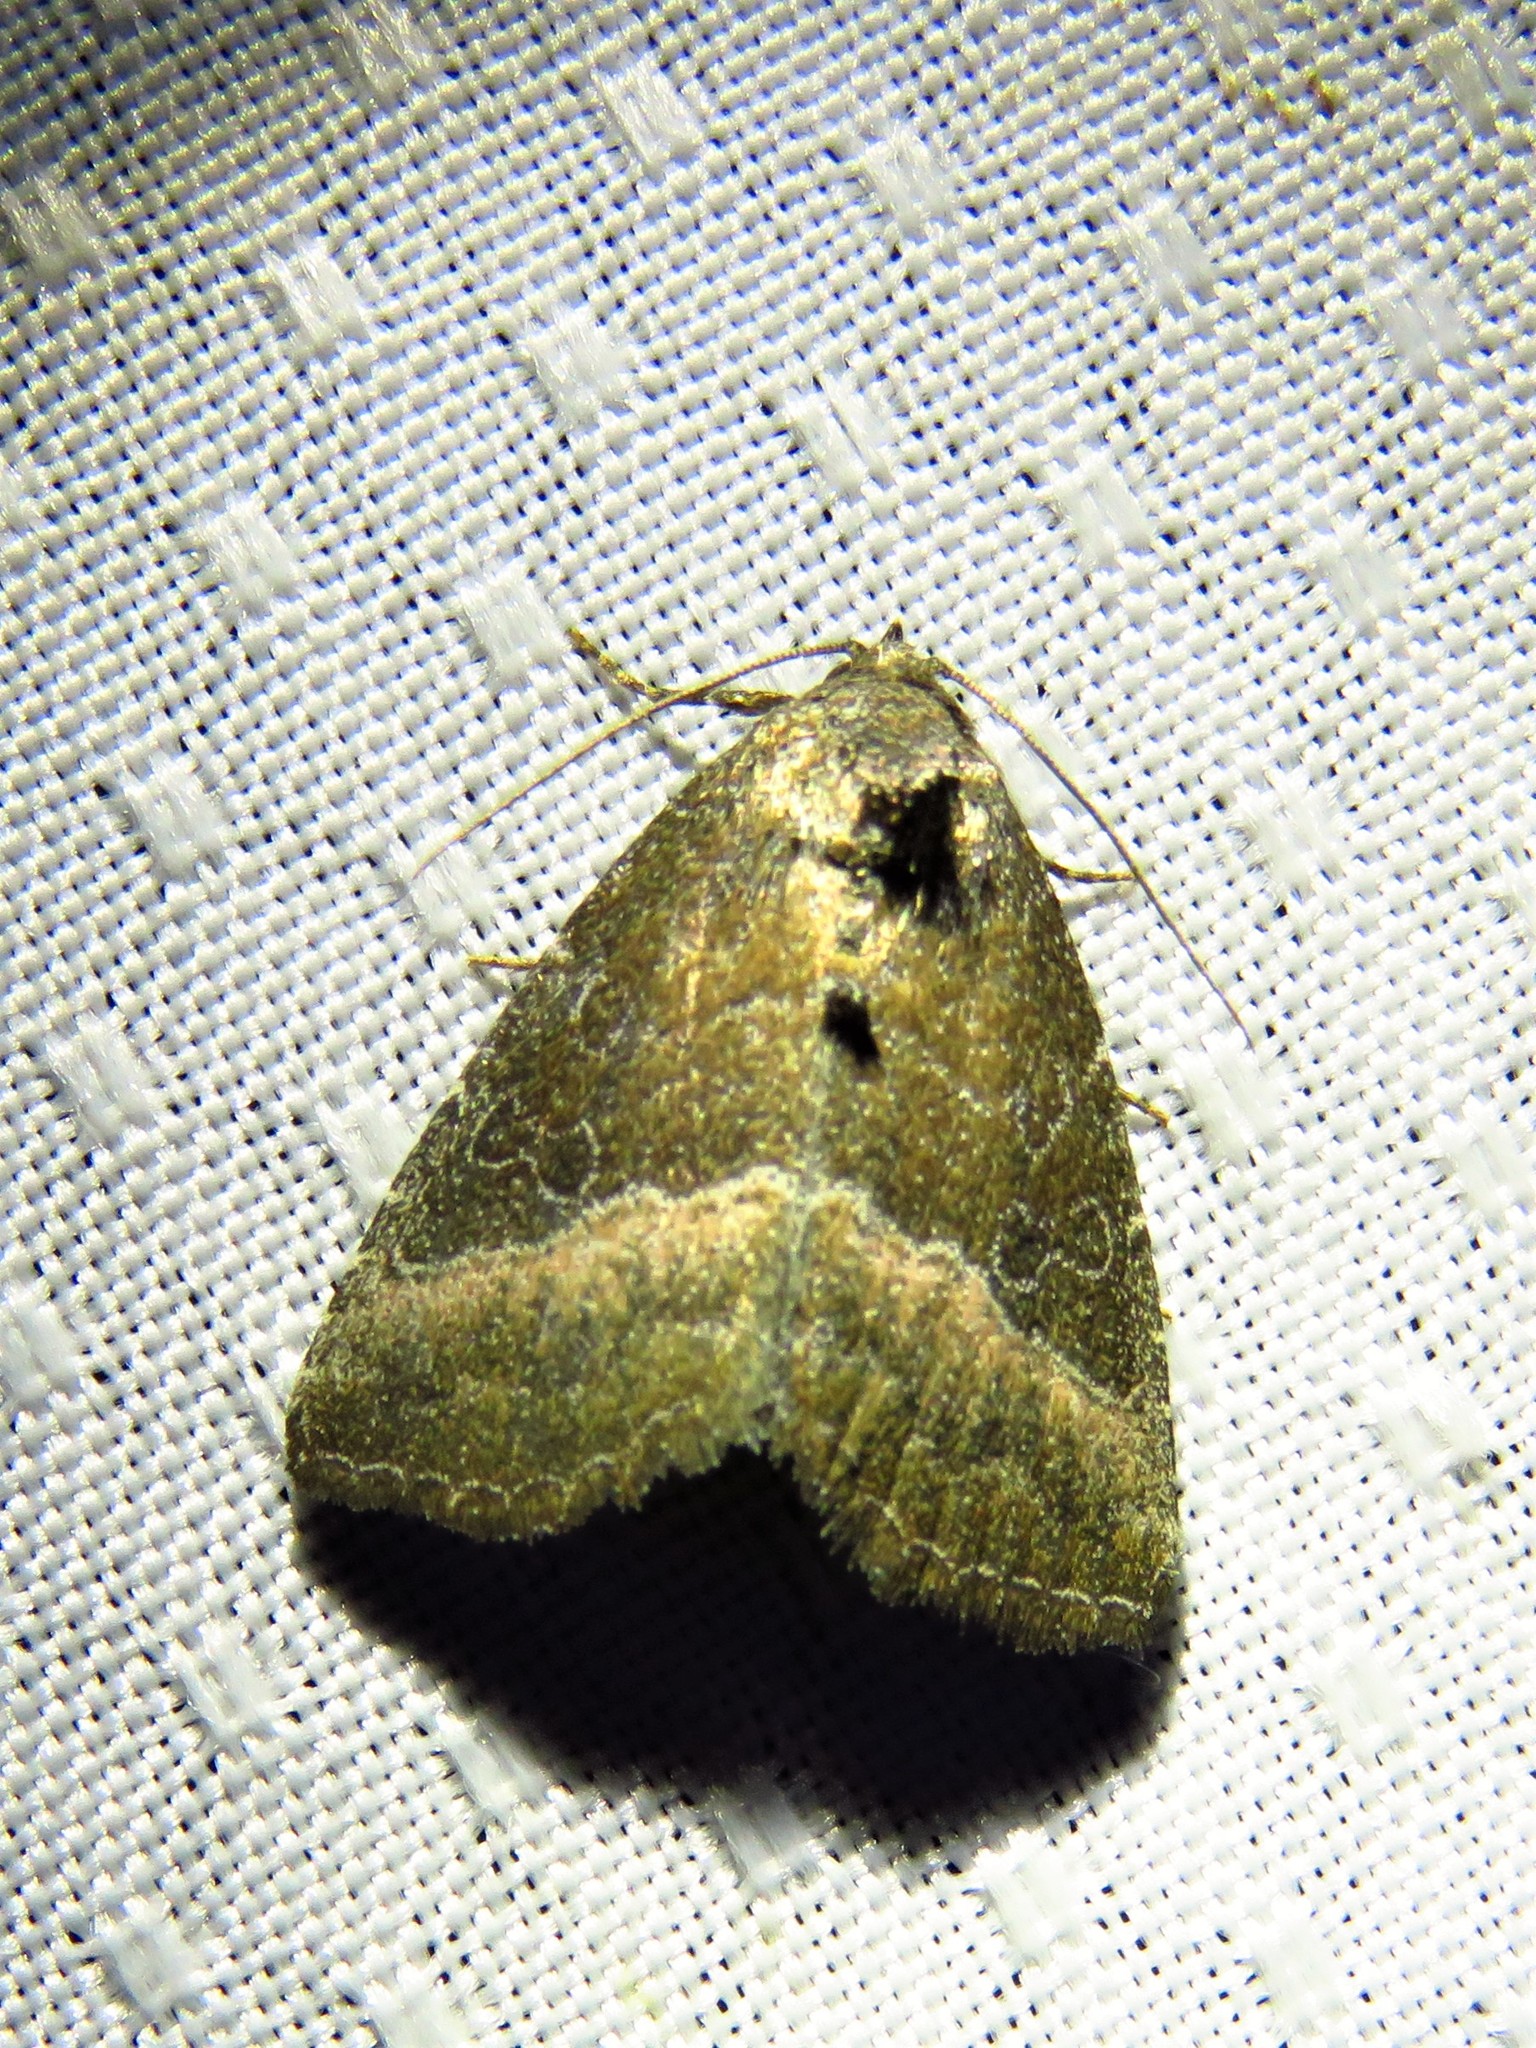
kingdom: Animalia
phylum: Arthropoda
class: Insecta
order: Lepidoptera
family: Noctuidae
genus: Ogdoconta
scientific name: Ogdoconta cinereola
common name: Common pinkband
